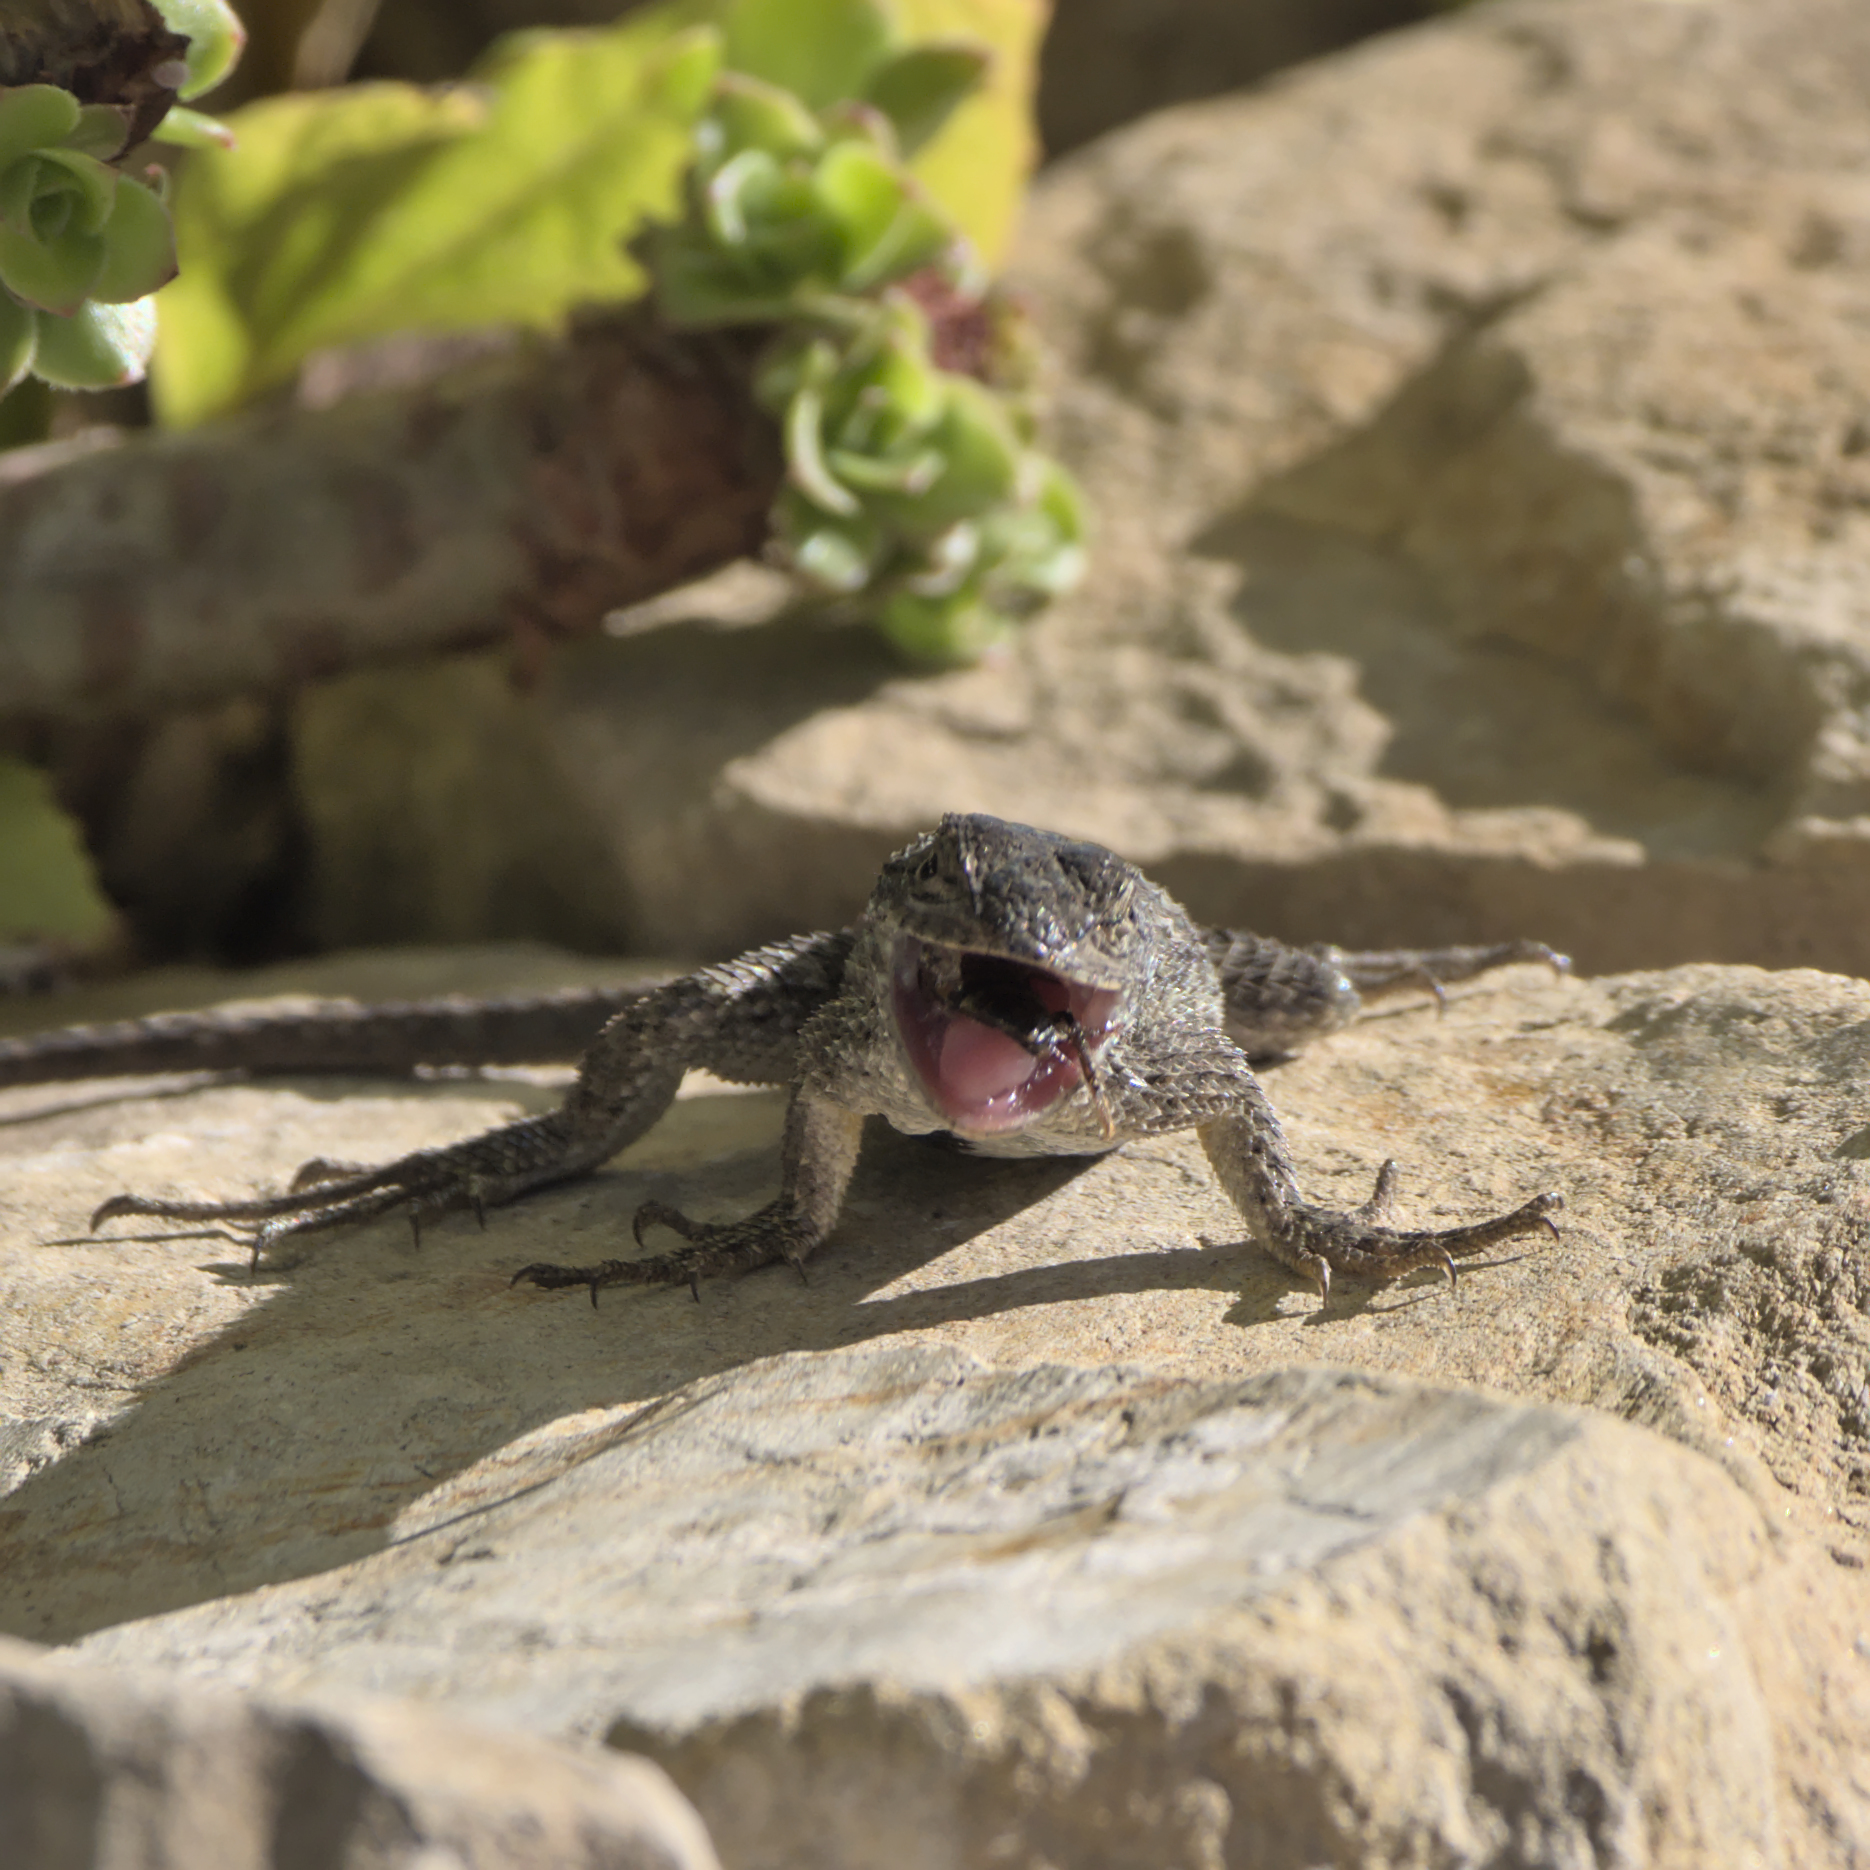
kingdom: Animalia
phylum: Chordata
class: Squamata
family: Phrynosomatidae
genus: Sceloporus
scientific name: Sceloporus occidentalis
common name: Western fence lizard
